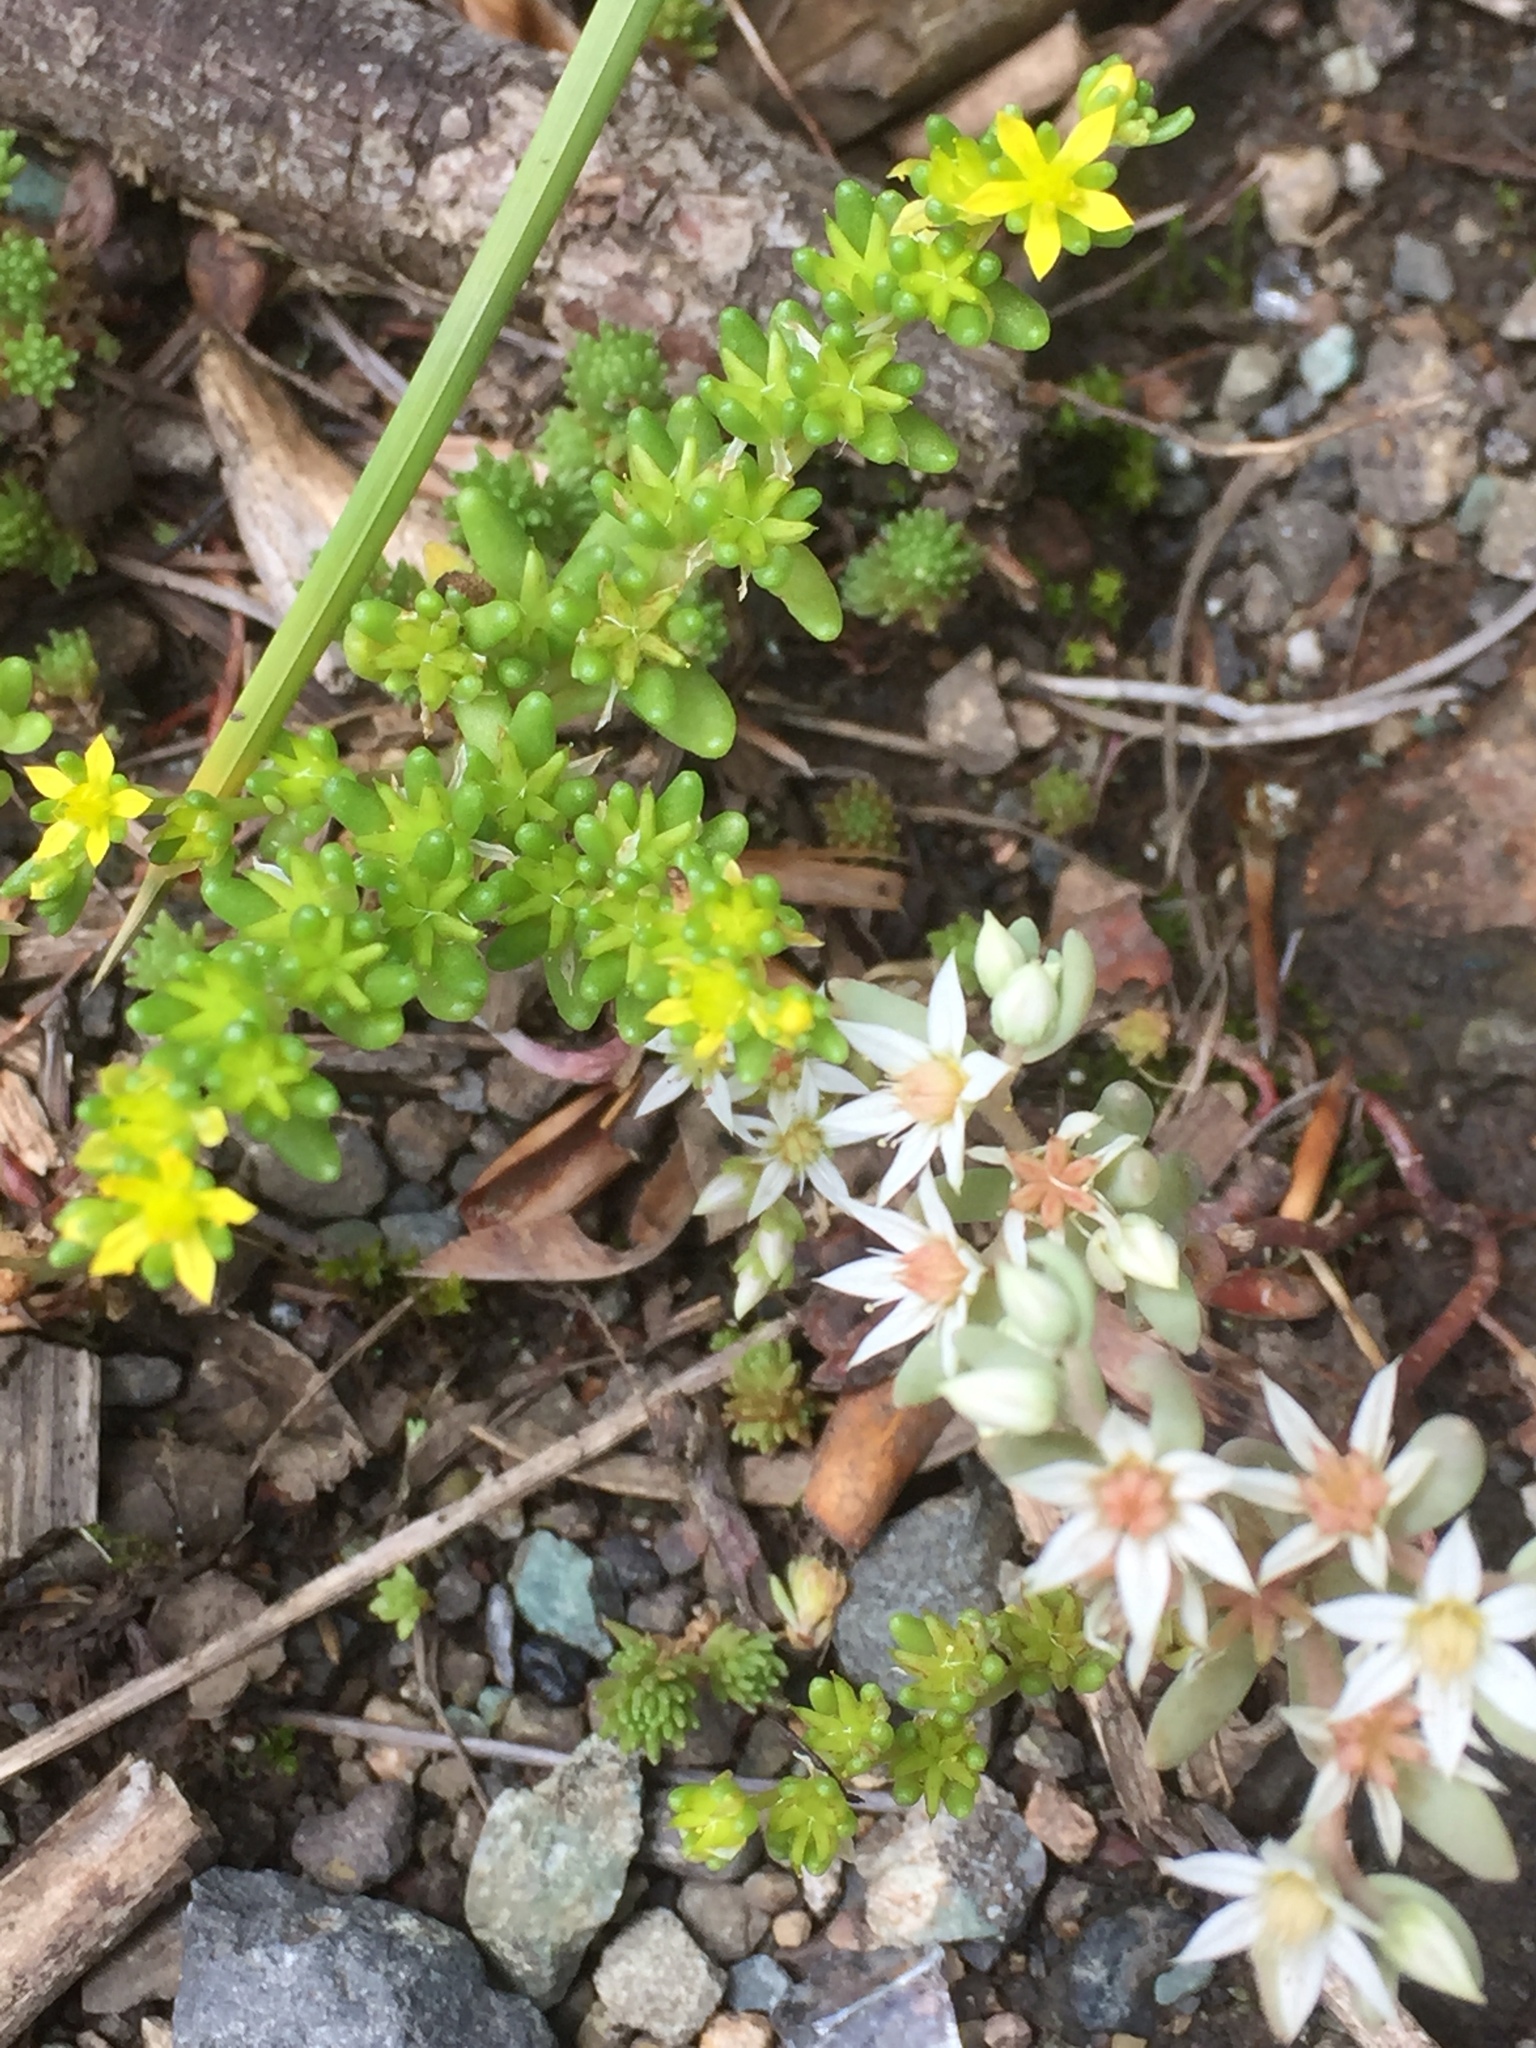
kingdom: Plantae
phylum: Tracheophyta
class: Magnoliopsida
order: Saxifragales
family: Crassulaceae
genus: Sedum
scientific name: Sedum annuum
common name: Annual stonecrop
